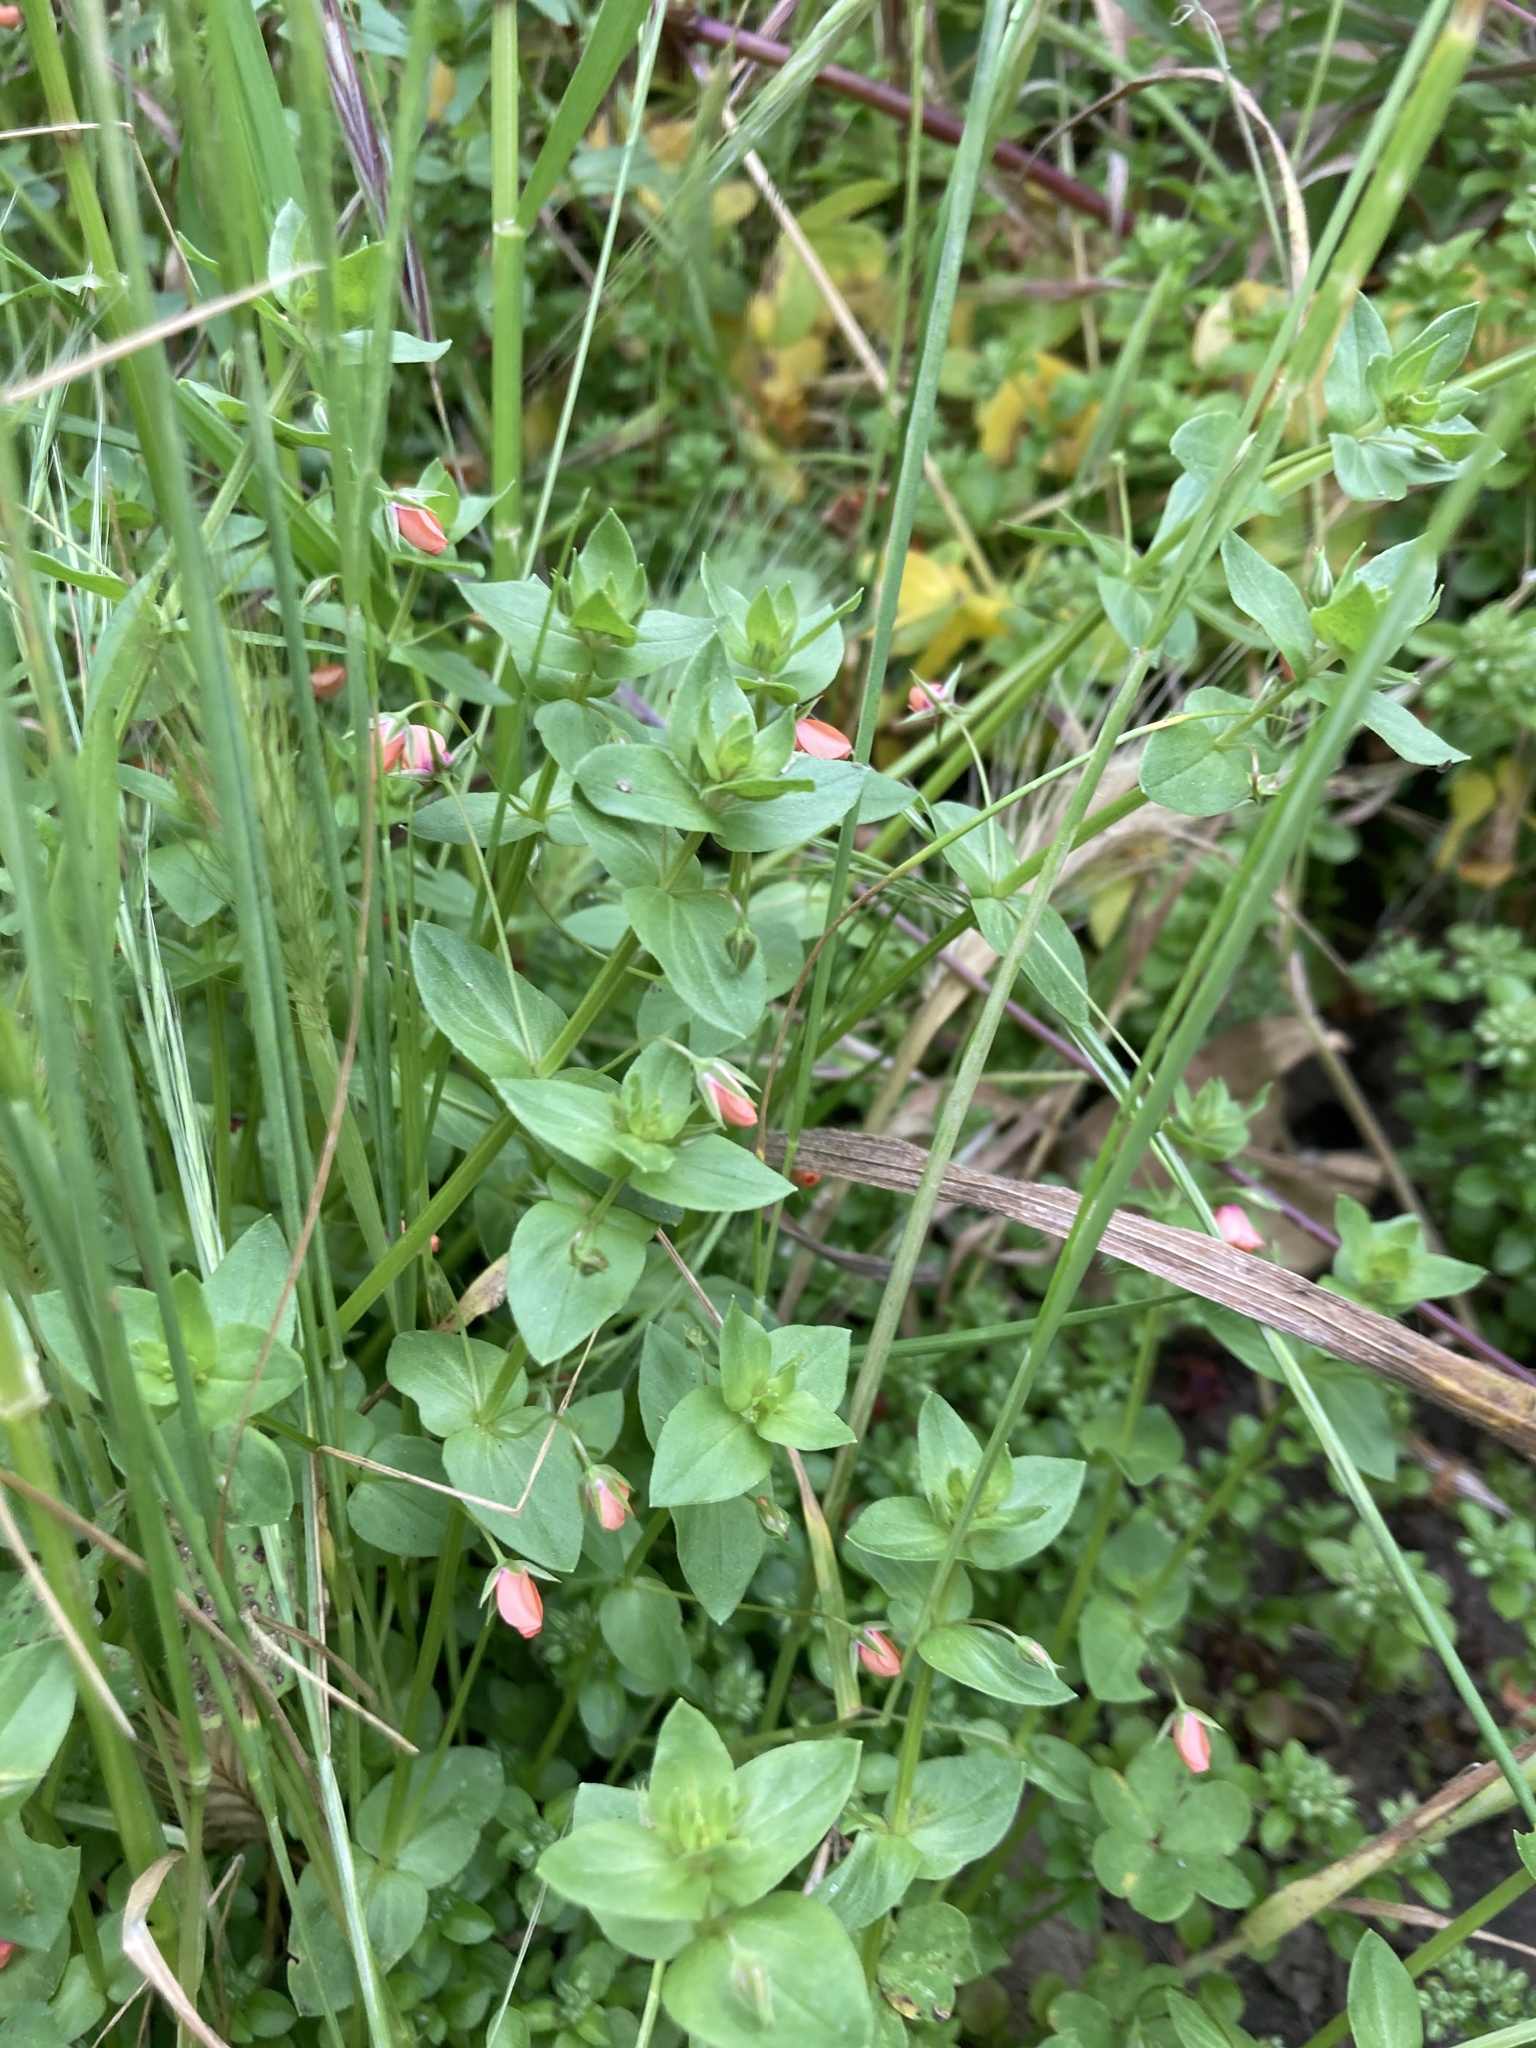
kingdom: Plantae
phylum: Tracheophyta
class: Magnoliopsida
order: Ericales
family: Primulaceae
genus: Lysimachia
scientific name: Lysimachia arvensis
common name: Scarlet pimpernel
